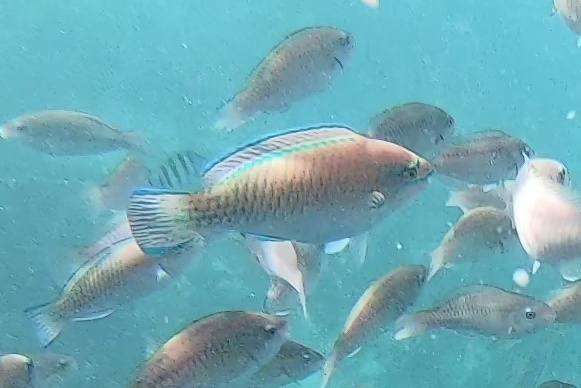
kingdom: Animalia
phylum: Chordata
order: Perciformes
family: Scaridae
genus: Scarus
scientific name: Scarus iseri
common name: Striped parrotfish
